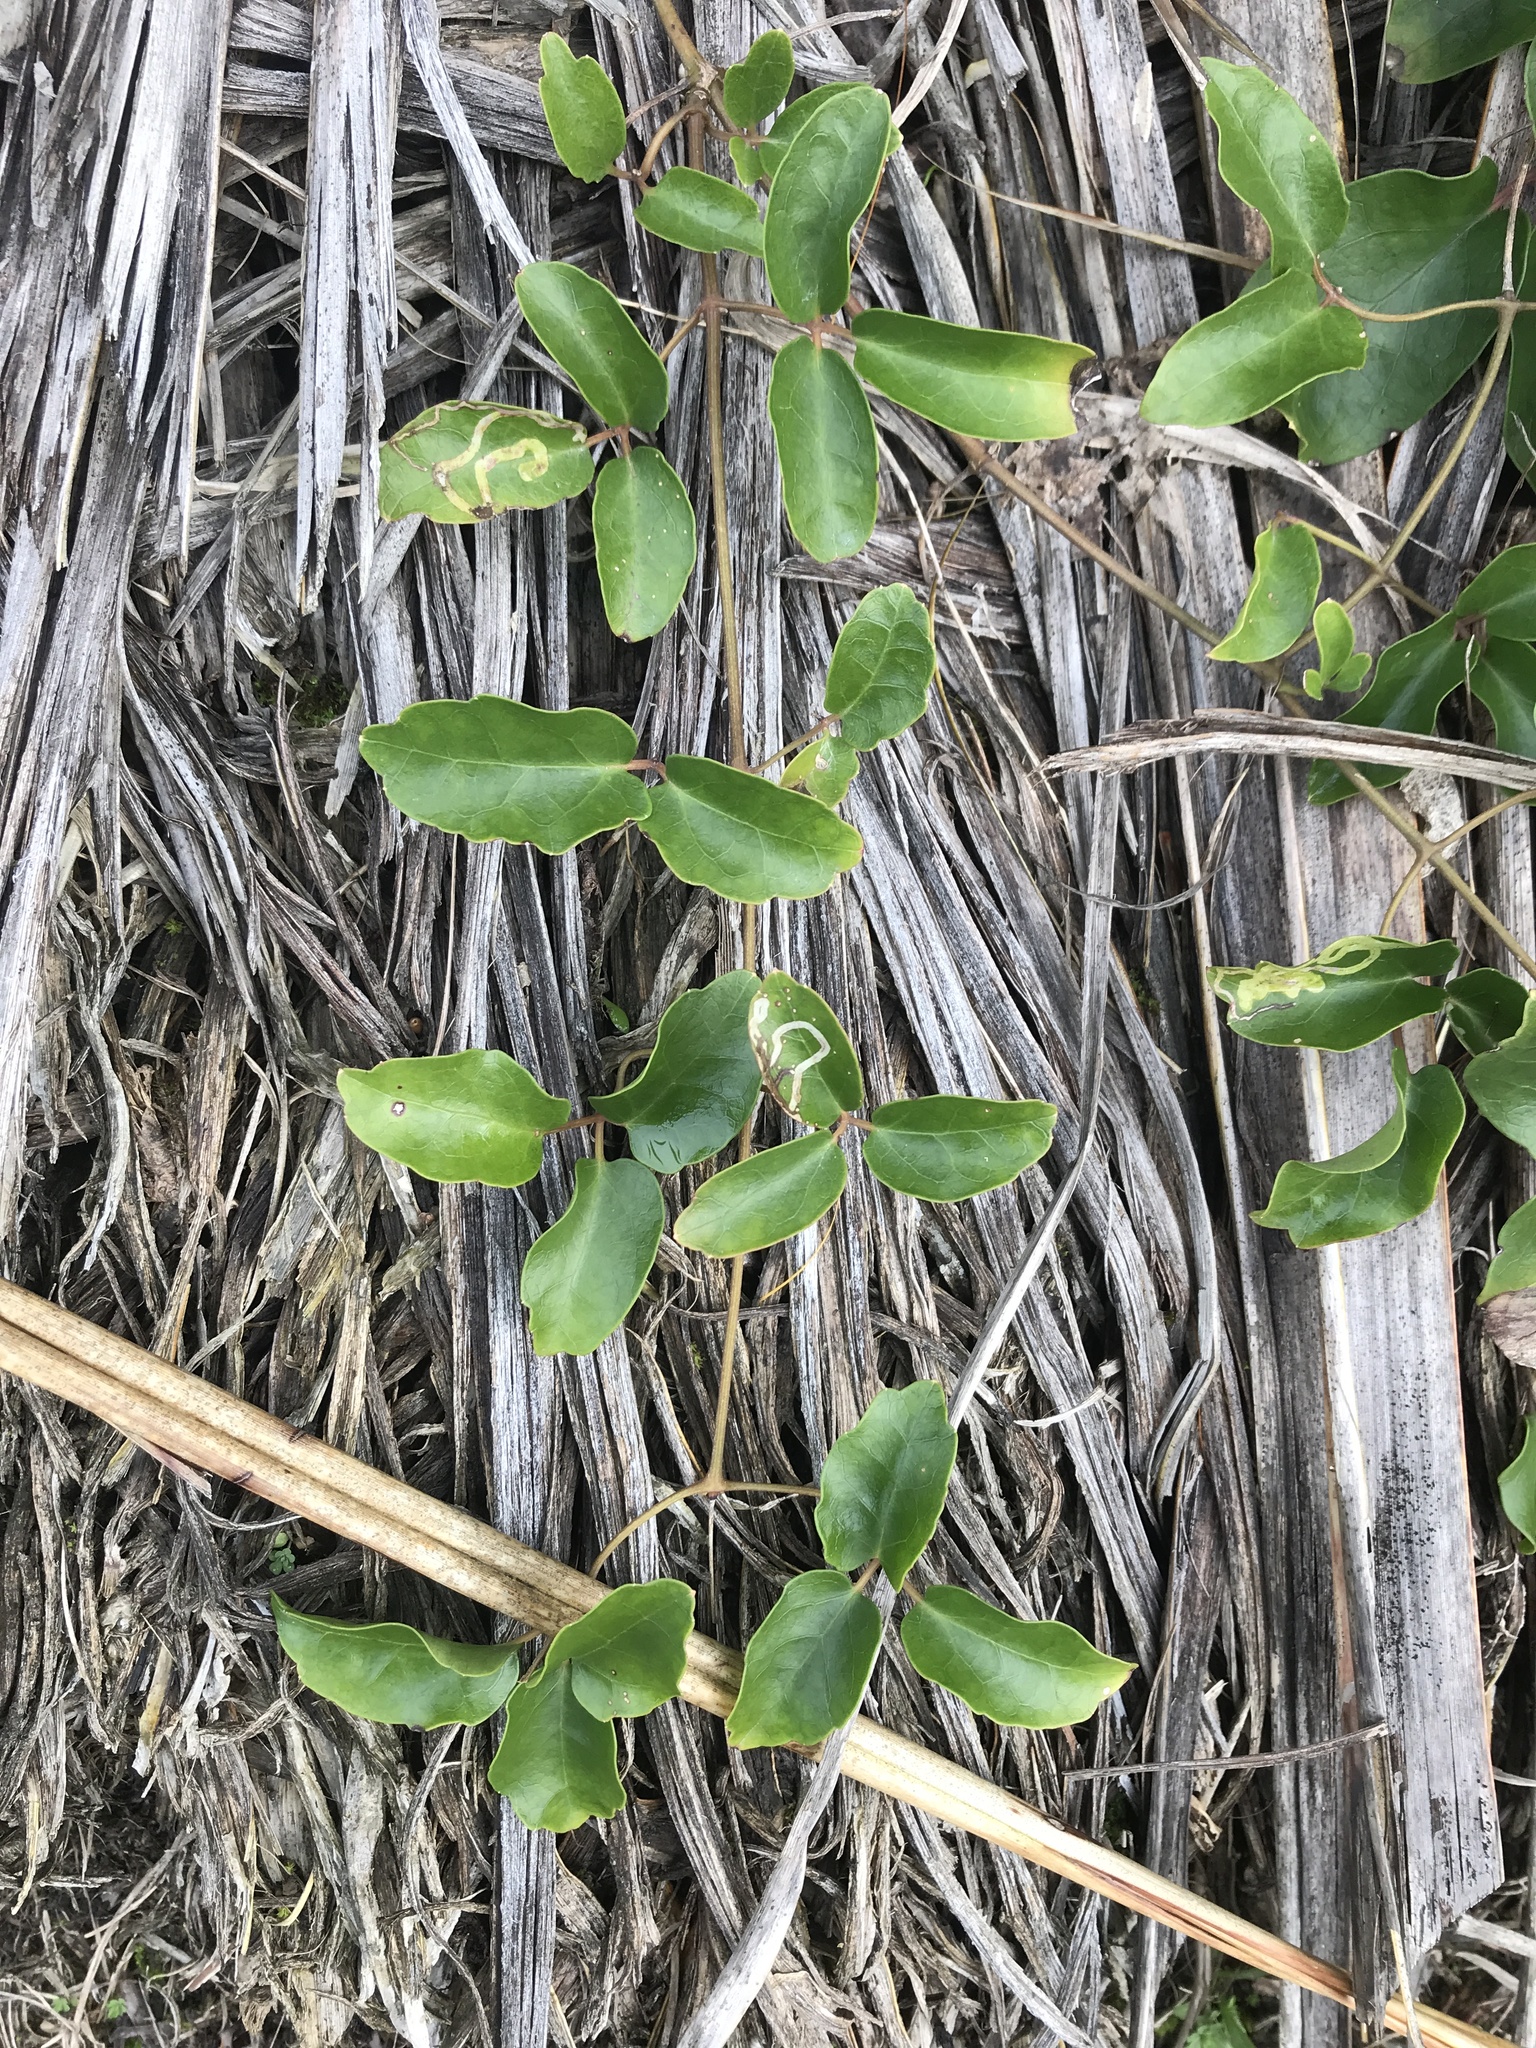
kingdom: Plantae
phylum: Tracheophyta
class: Magnoliopsida
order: Ranunculales
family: Ranunculaceae
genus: Clematis
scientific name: Clematis paniculata
